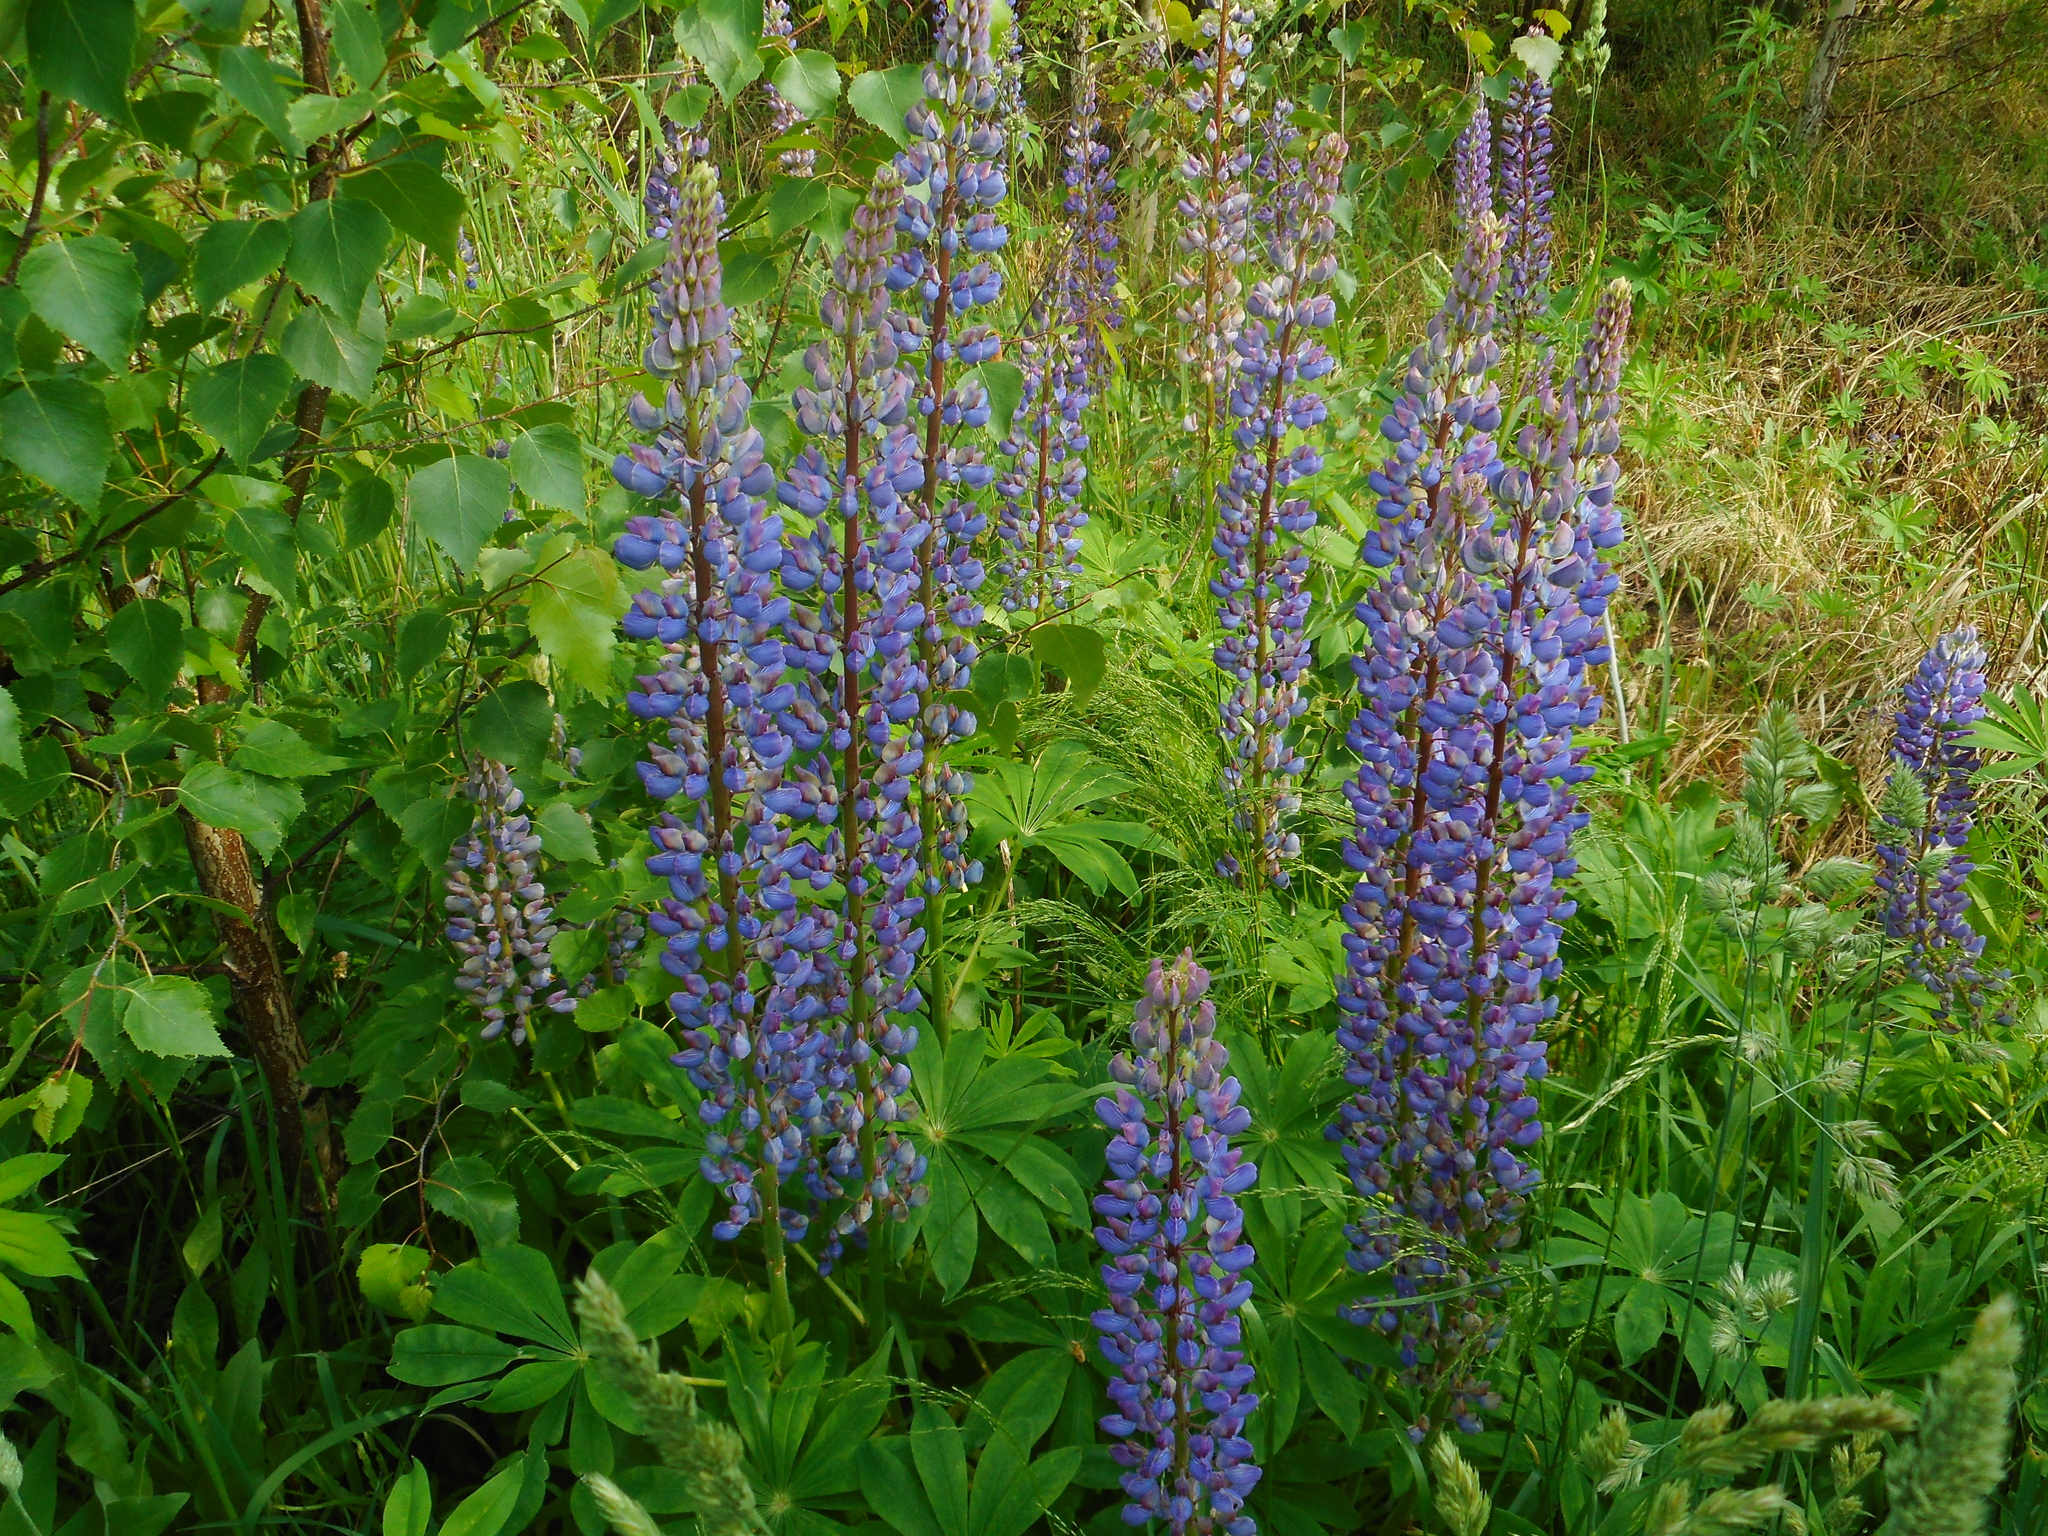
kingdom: Plantae
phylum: Tracheophyta
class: Magnoliopsida
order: Fabales
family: Fabaceae
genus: Lupinus
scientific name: Lupinus polyphyllus
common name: Garden lupin
